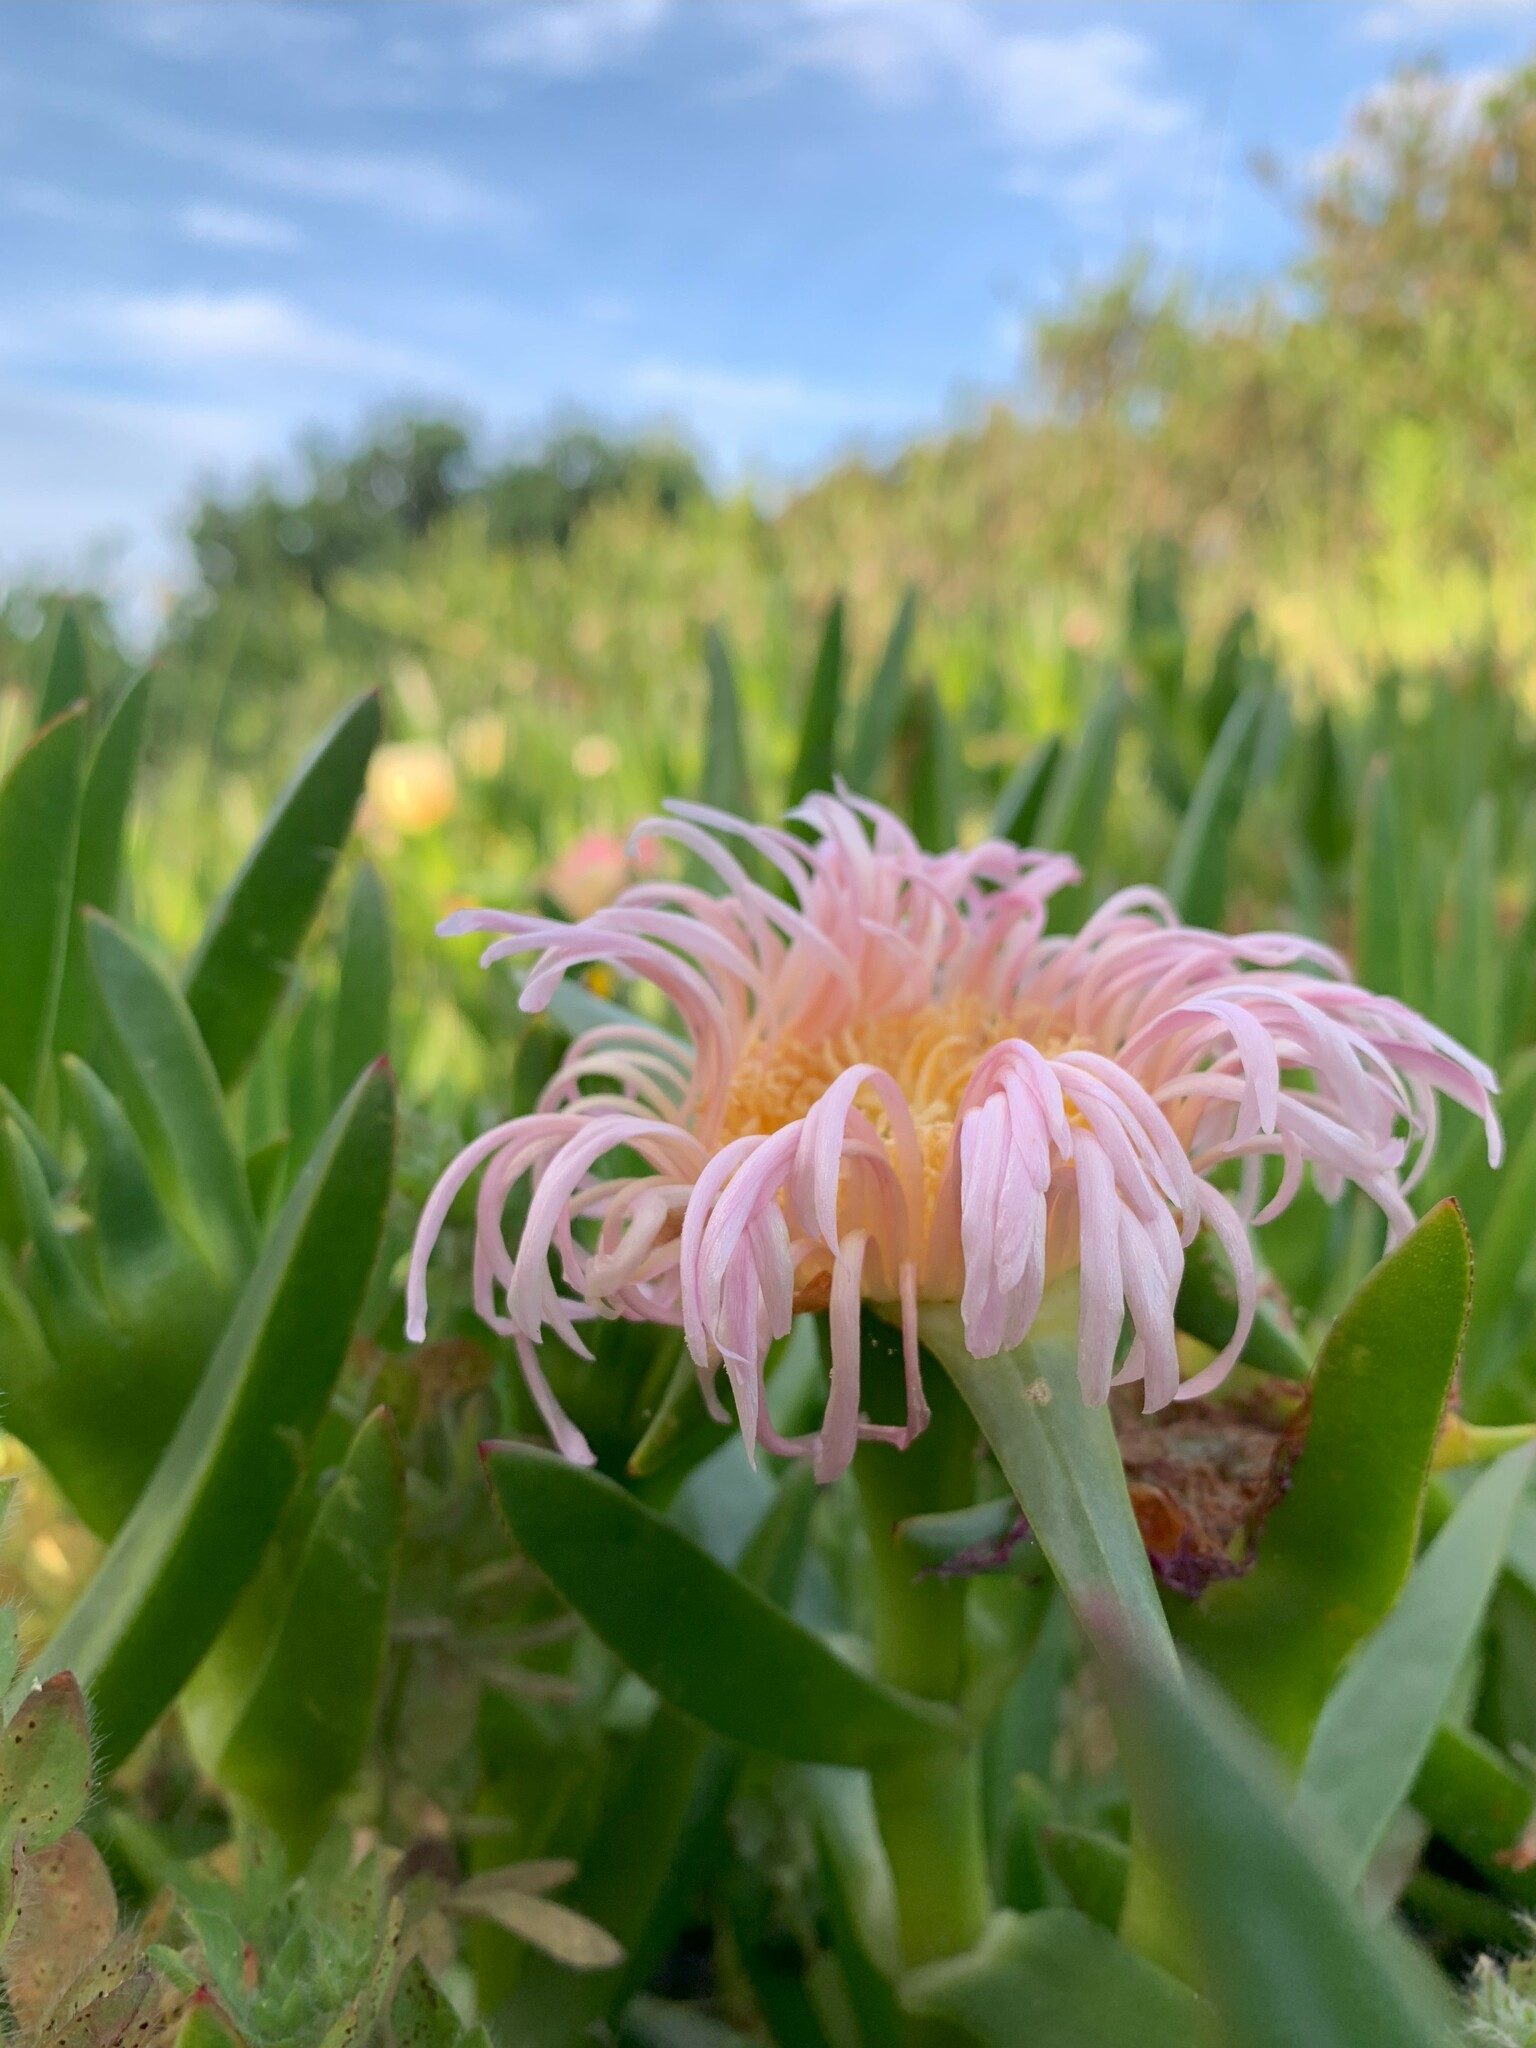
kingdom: Plantae
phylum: Tracheophyta
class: Magnoliopsida
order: Caryophyllales
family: Aizoaceae
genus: Carpobrotus
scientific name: Carpobrotus edulis
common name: Hottentot-fig
